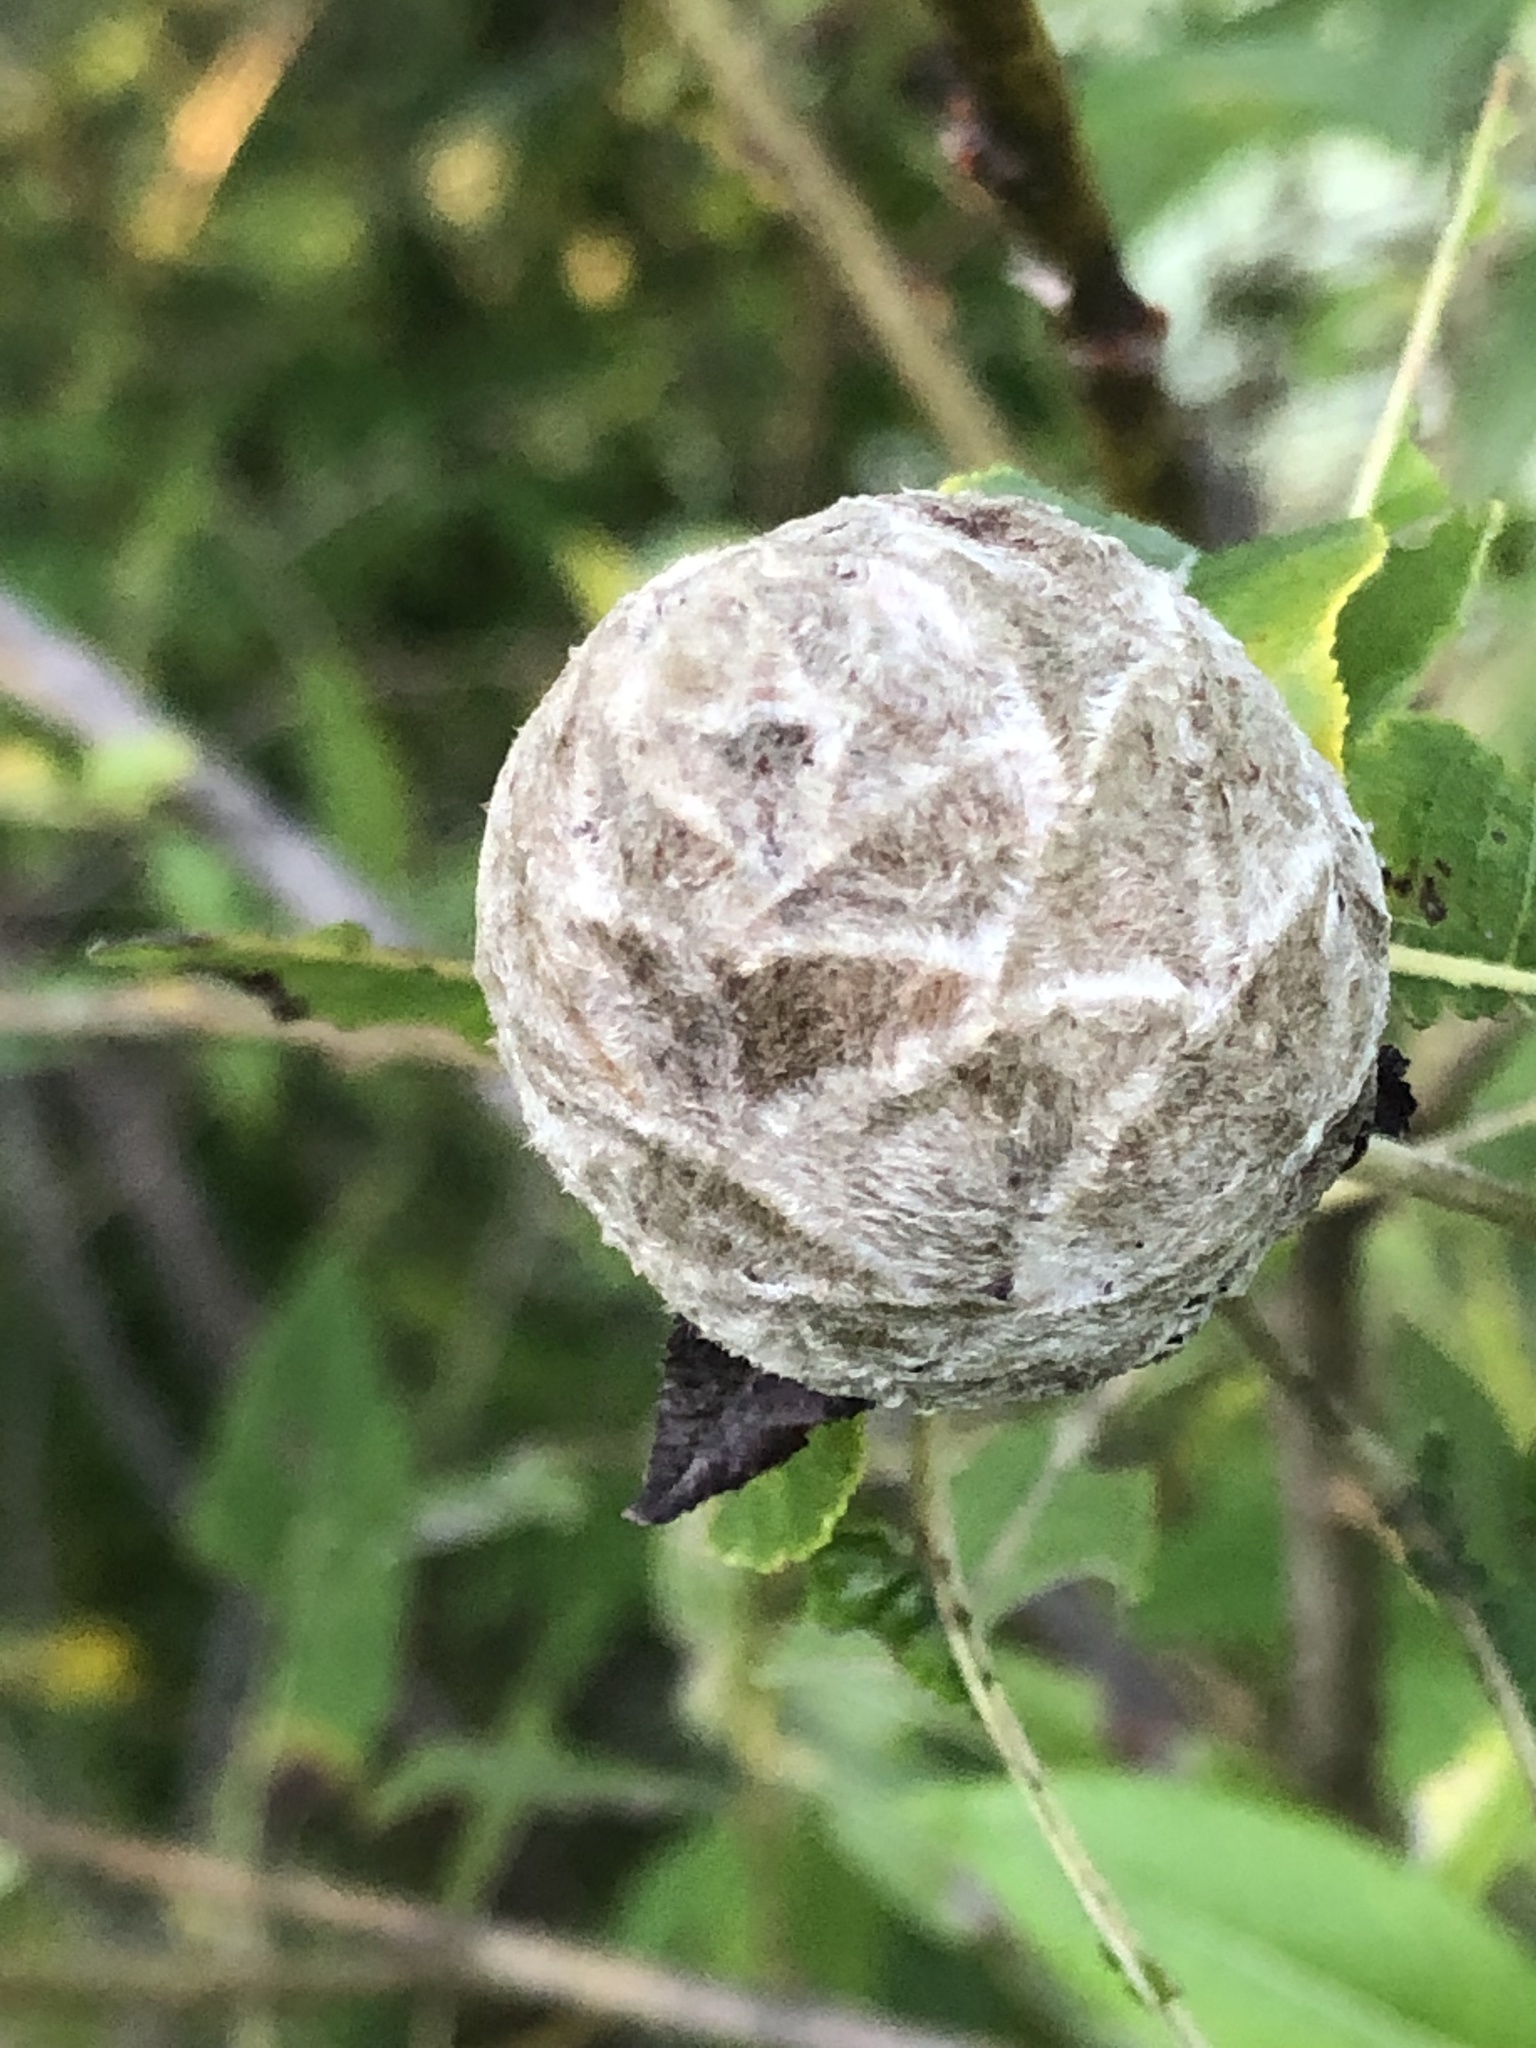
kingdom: Animalia
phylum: Arthropoda
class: Insecta
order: Diptera
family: Cecidomyiidae
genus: Rabdophaga
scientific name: Rabdophaga strobiloides
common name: Willow pinecone gall midge
